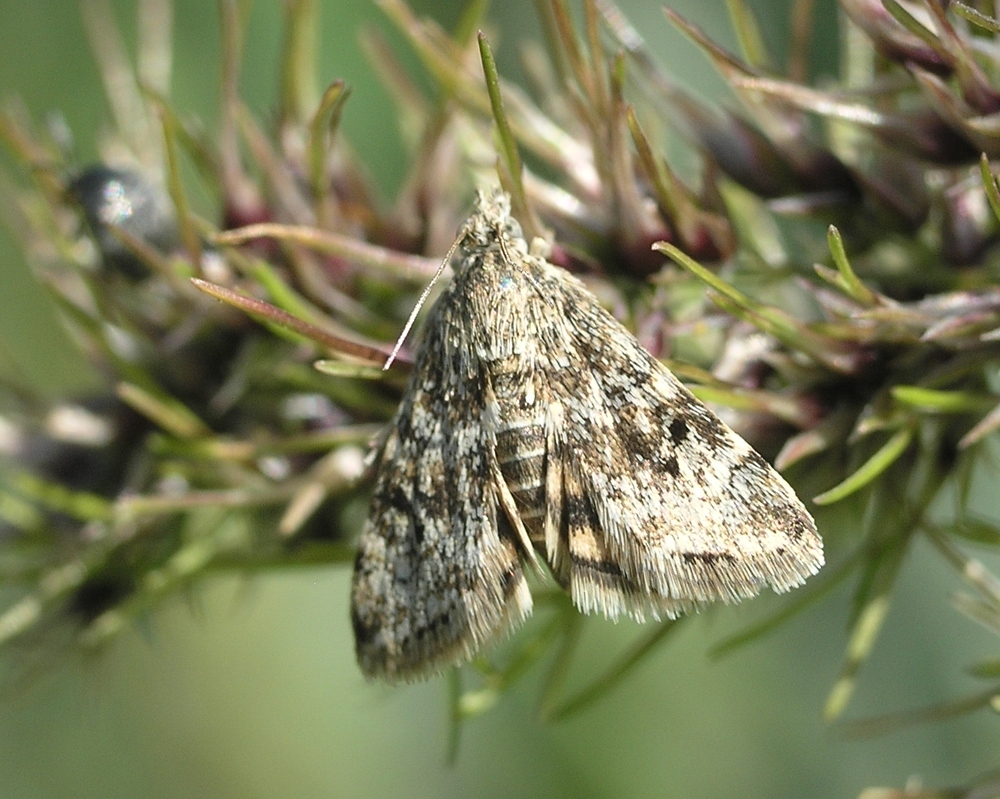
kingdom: Animalia
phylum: Arthropoda
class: Insecta
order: Lepidoptera
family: Crambidae
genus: Noctuelia
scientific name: Noctuelia Aporodes floralis
